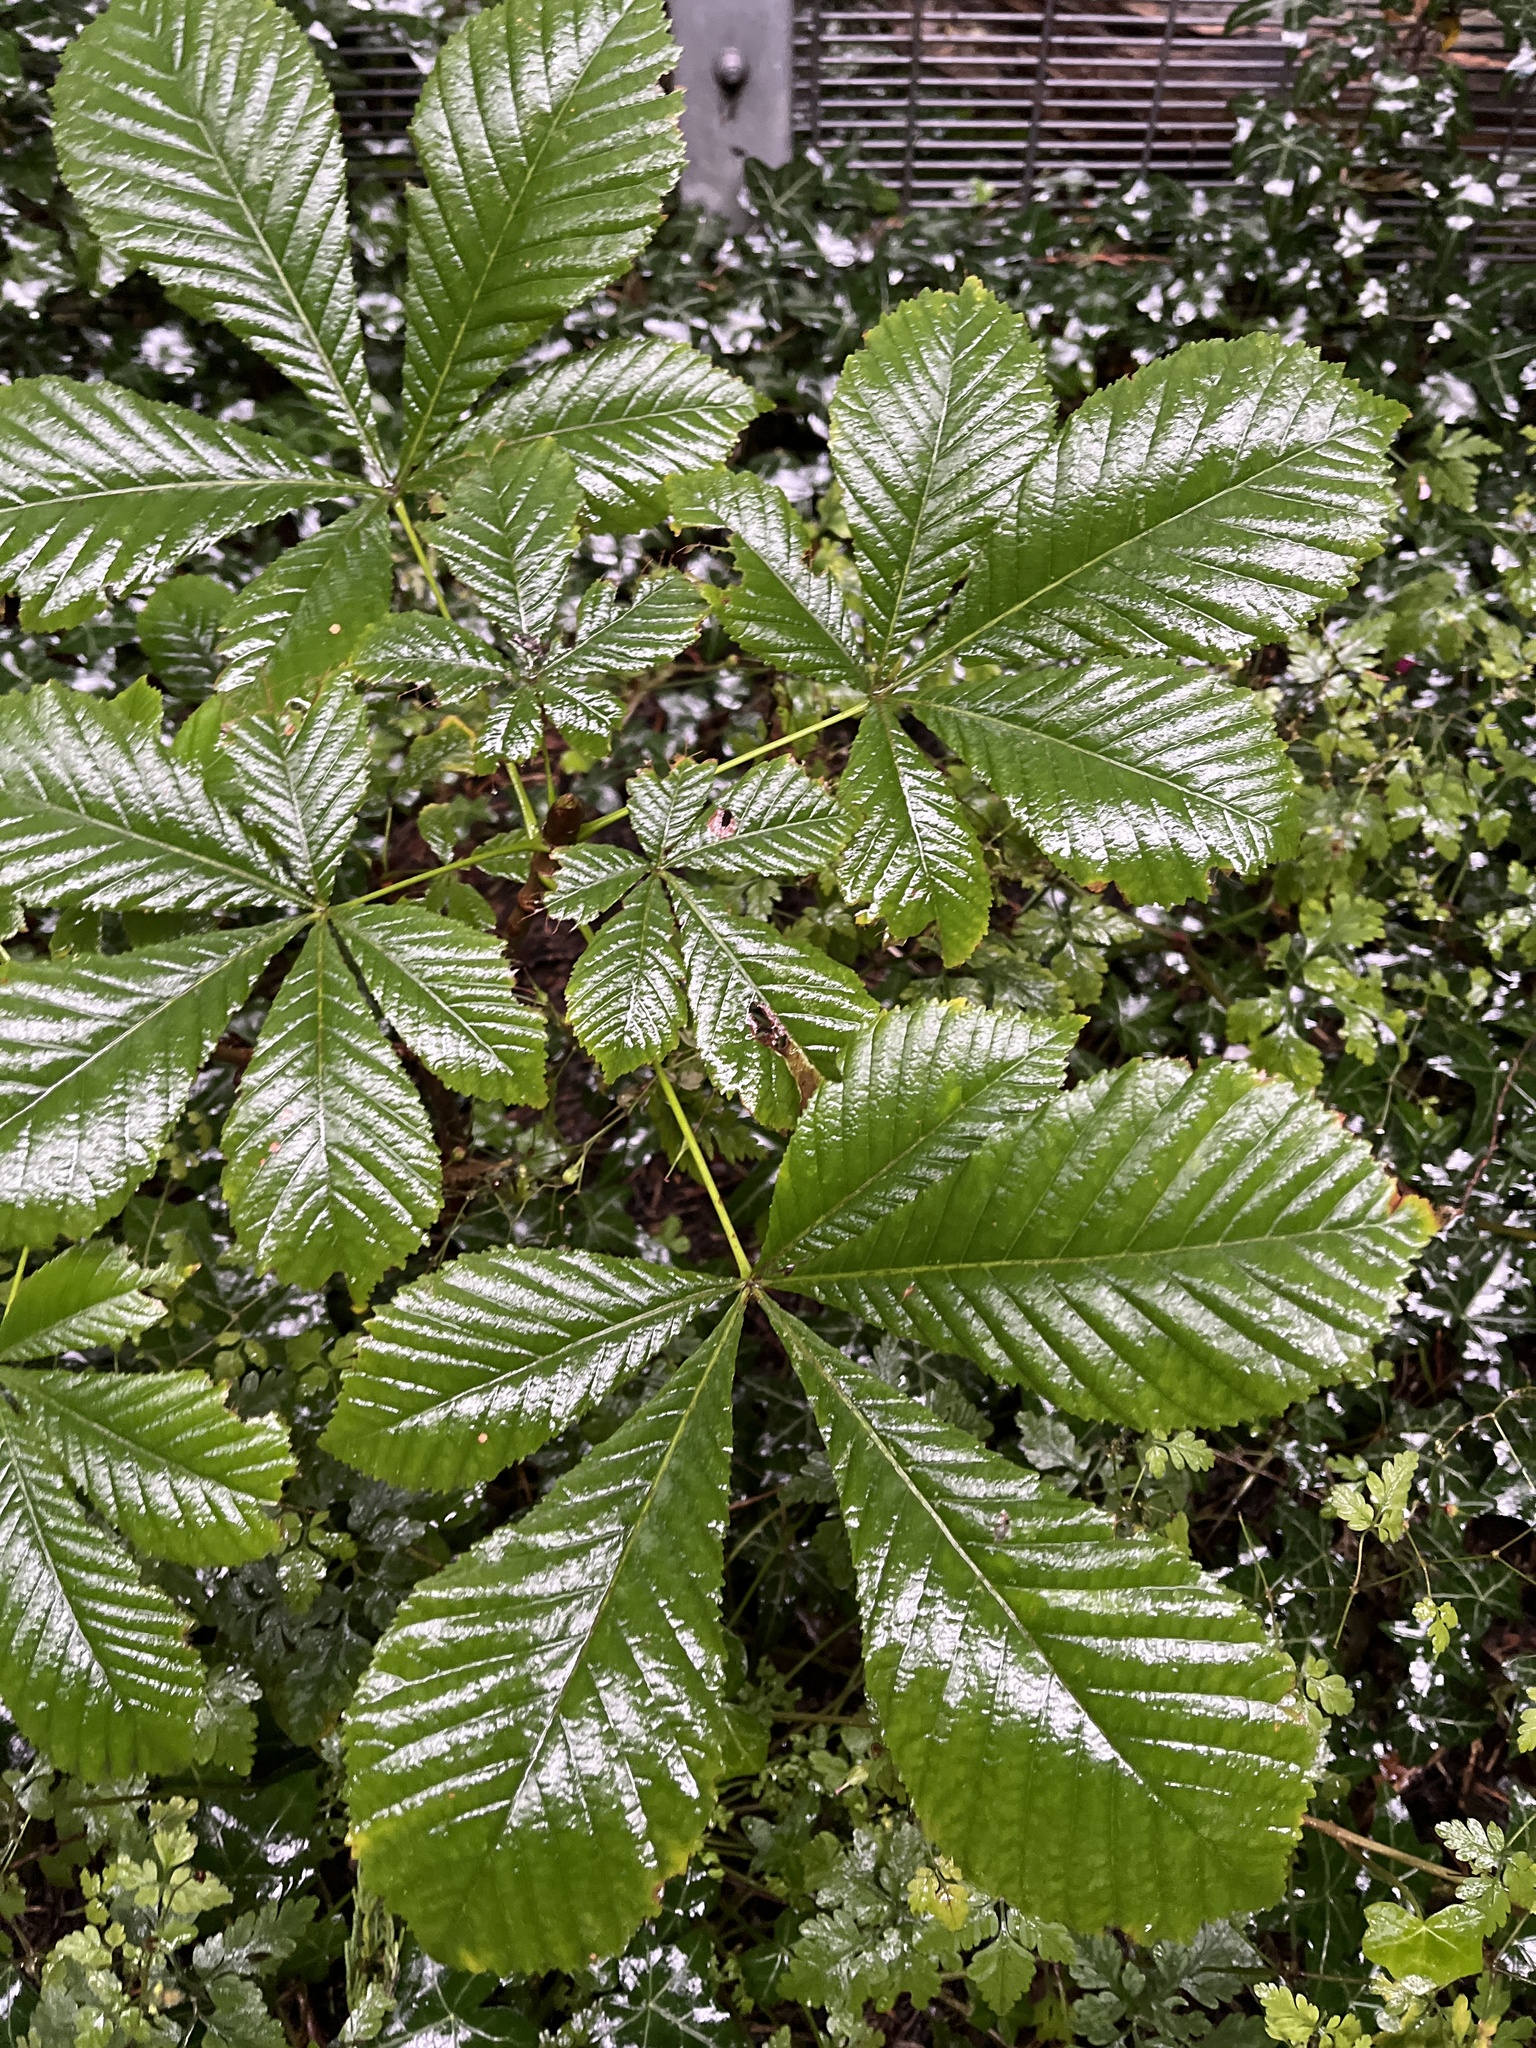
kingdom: Plantae
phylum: Tracheophyta
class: Magnoliopsida
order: Sapindales
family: Sapindaceae
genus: Aesculus
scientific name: Aesculus hippocastanum
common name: Horse-chestnut
